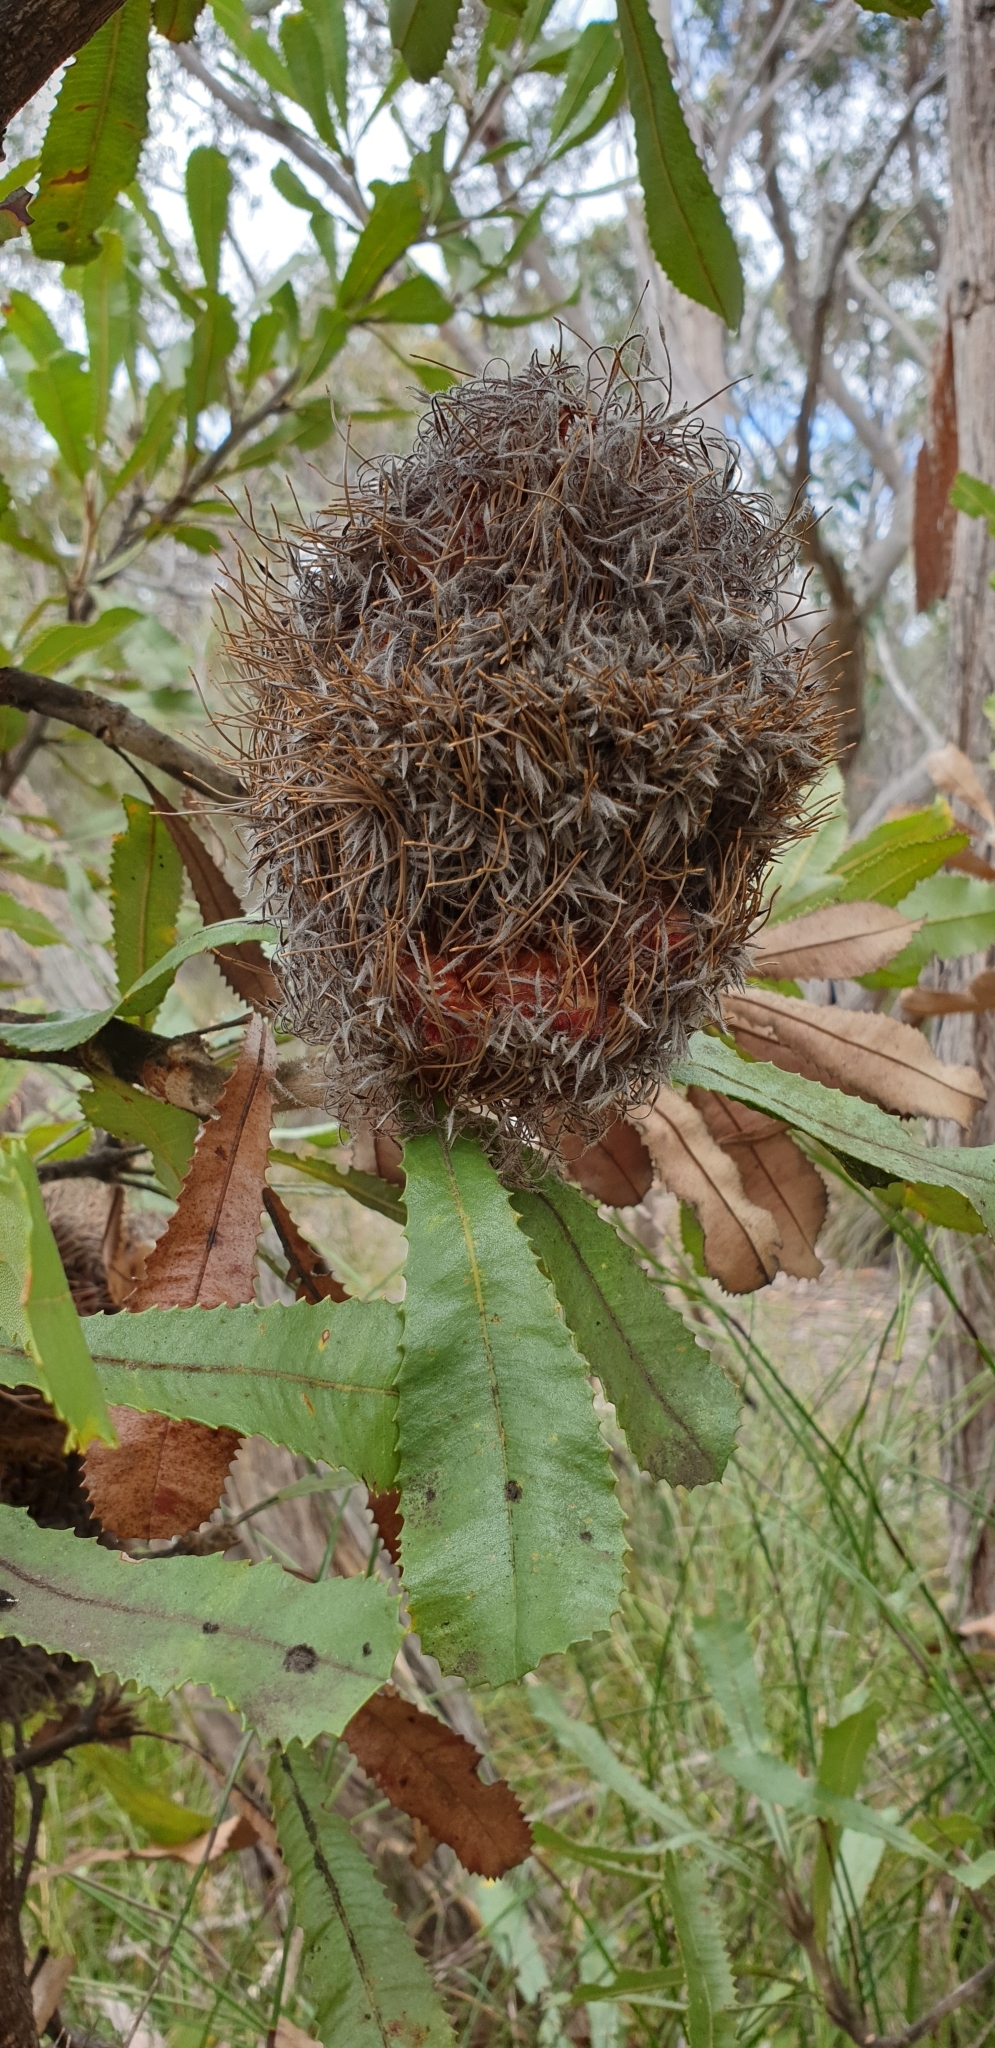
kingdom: Plantae
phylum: Tracheophyta
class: Magnoliopsida
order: Proteales
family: Proteaceae
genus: Banksia
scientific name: Banksia ornata
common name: Desert banksia
